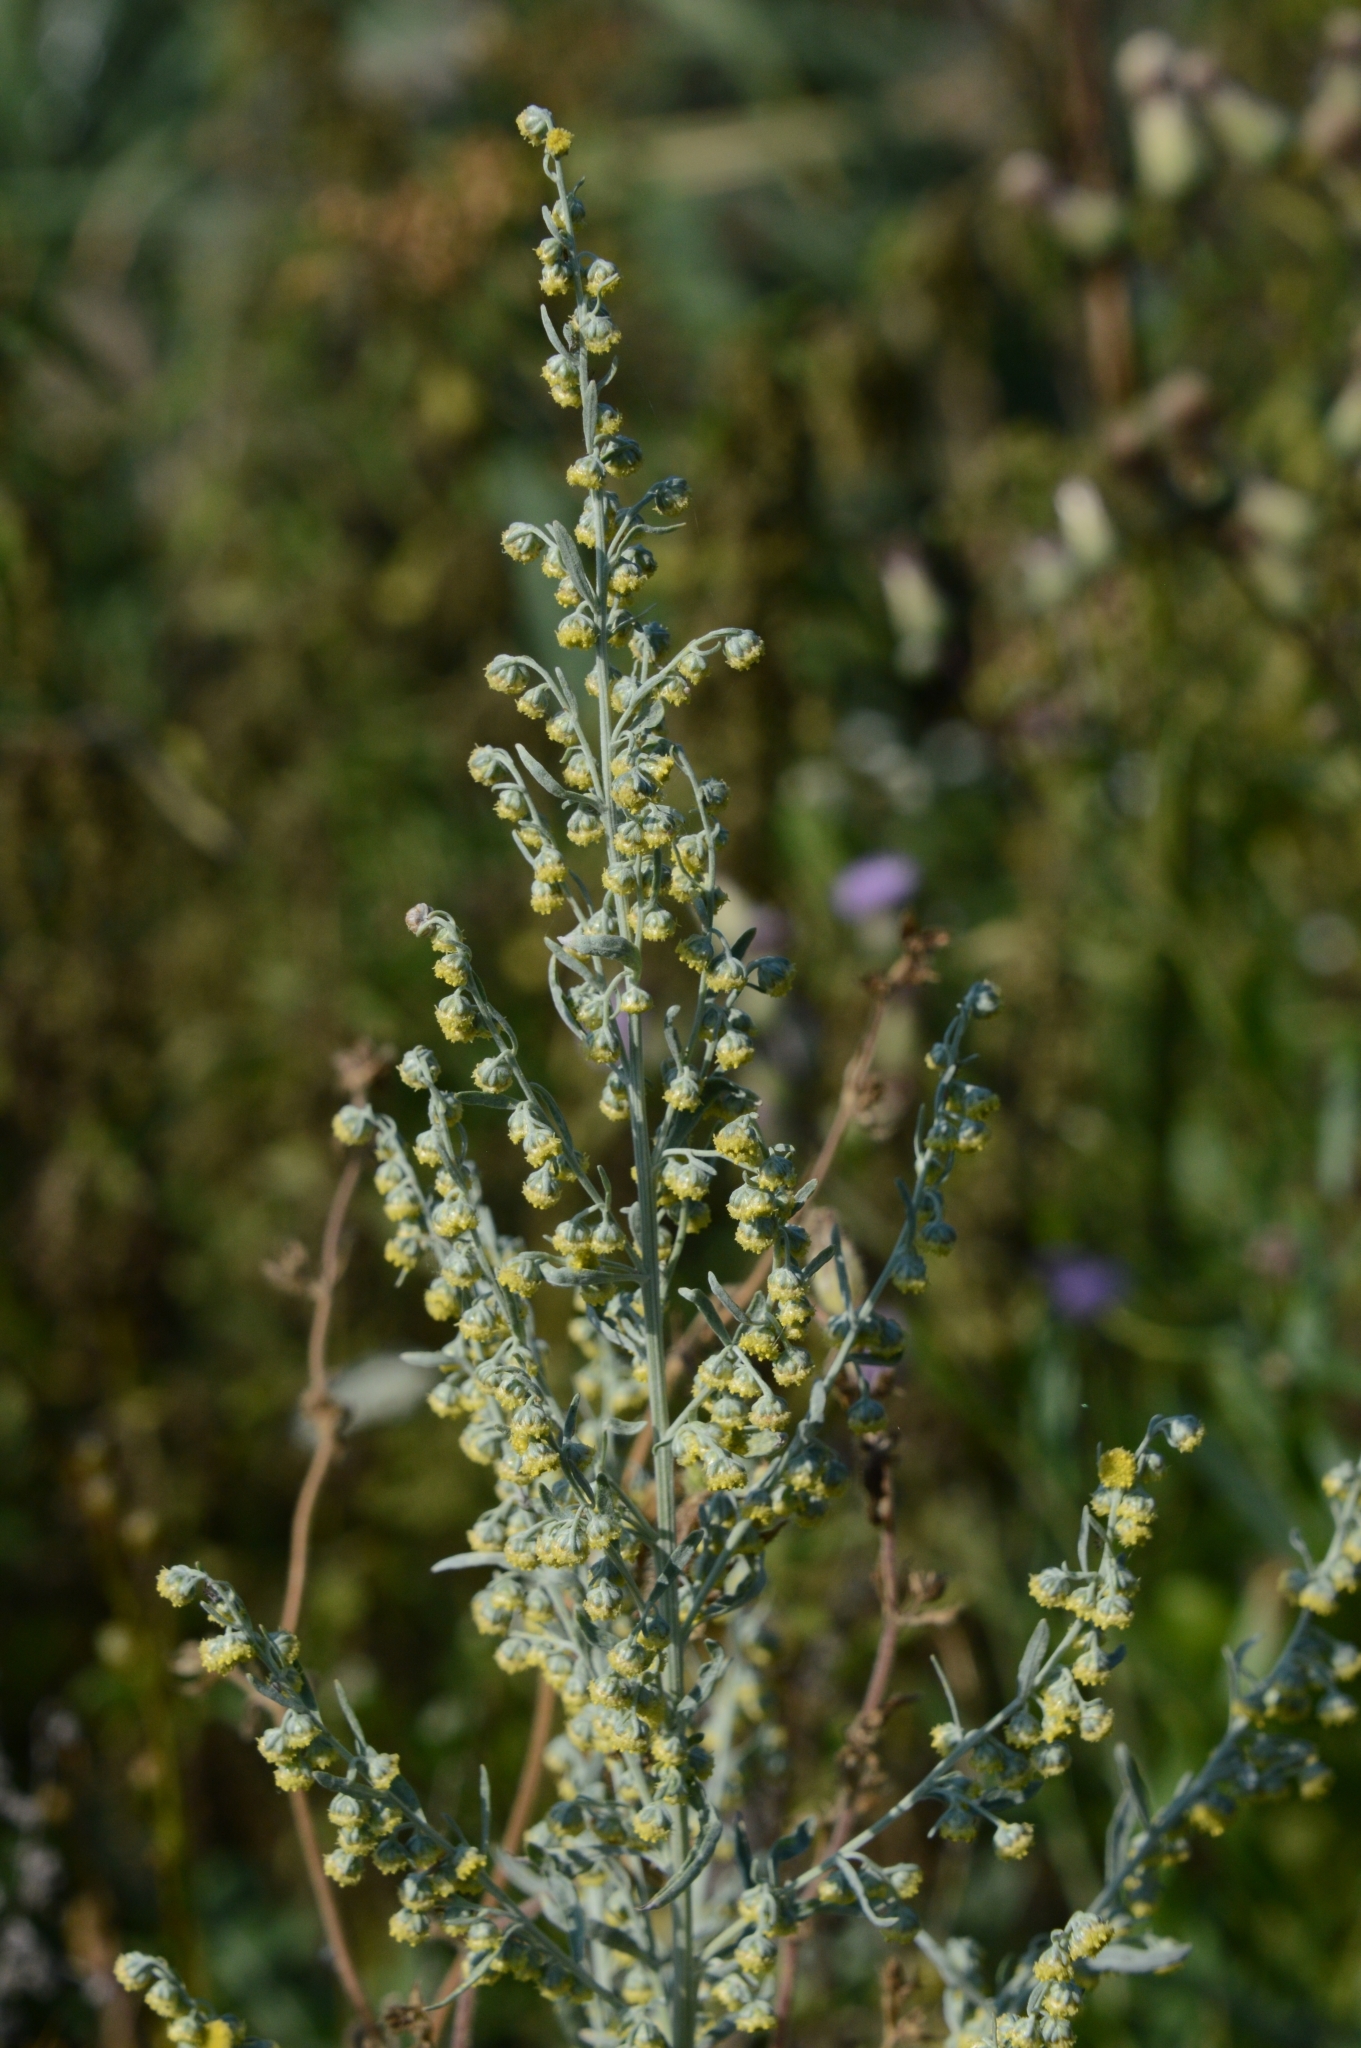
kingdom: Plantae
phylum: Tracheophyta
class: Magnoliopsida
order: Asterales
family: Asteraceae
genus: Artemisia
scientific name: Artemisia absinthium
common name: Wormwood
